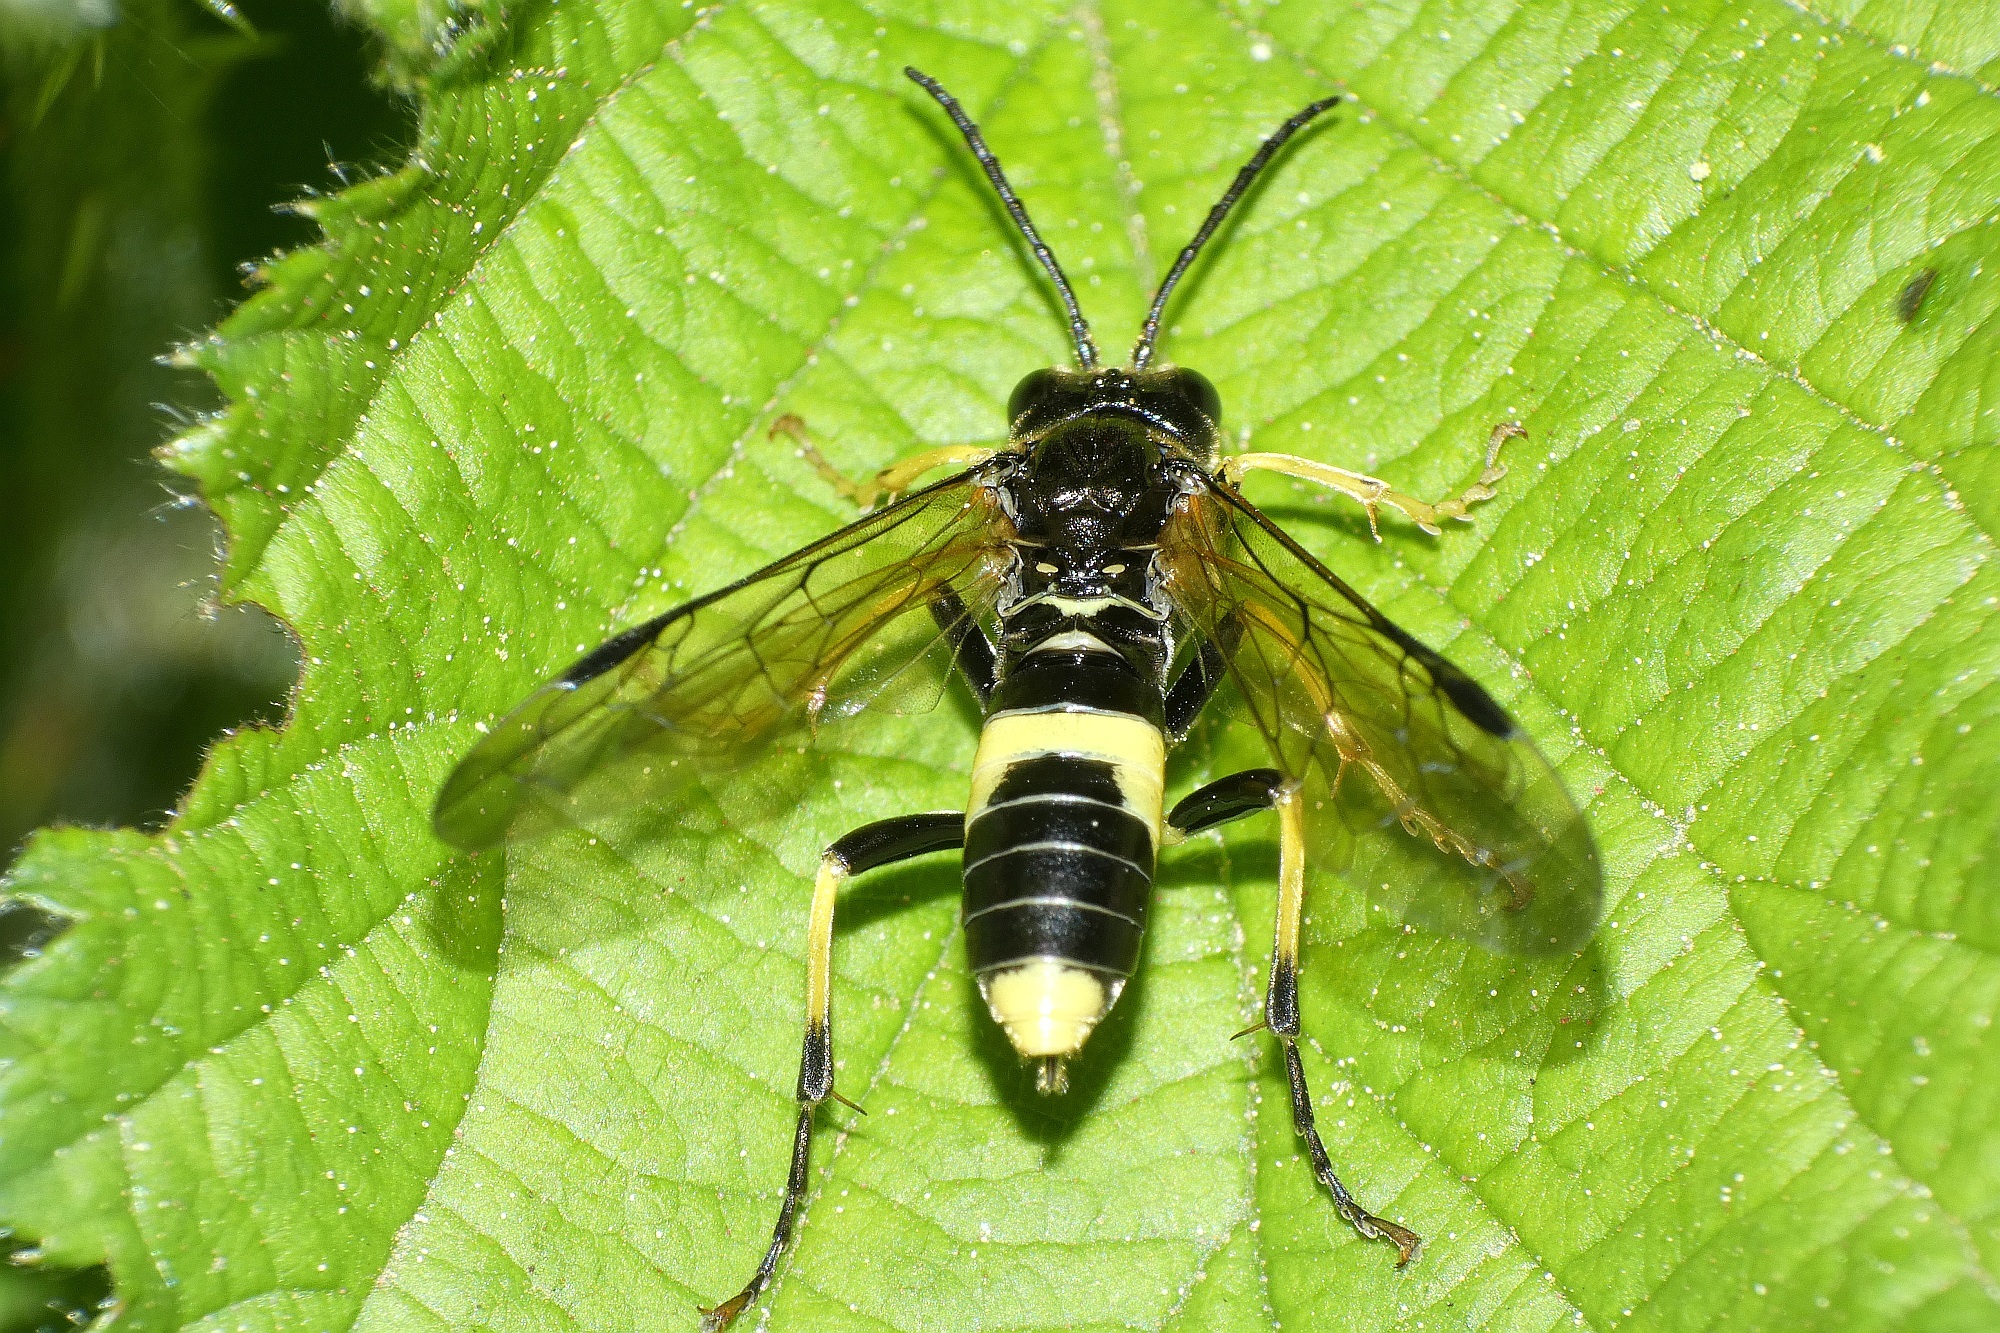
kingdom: Animalia
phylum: Arthropoda
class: Insecta
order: Hymenoptera
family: Tenthredinidae
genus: Tenthredo
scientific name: Tenthredo temula
